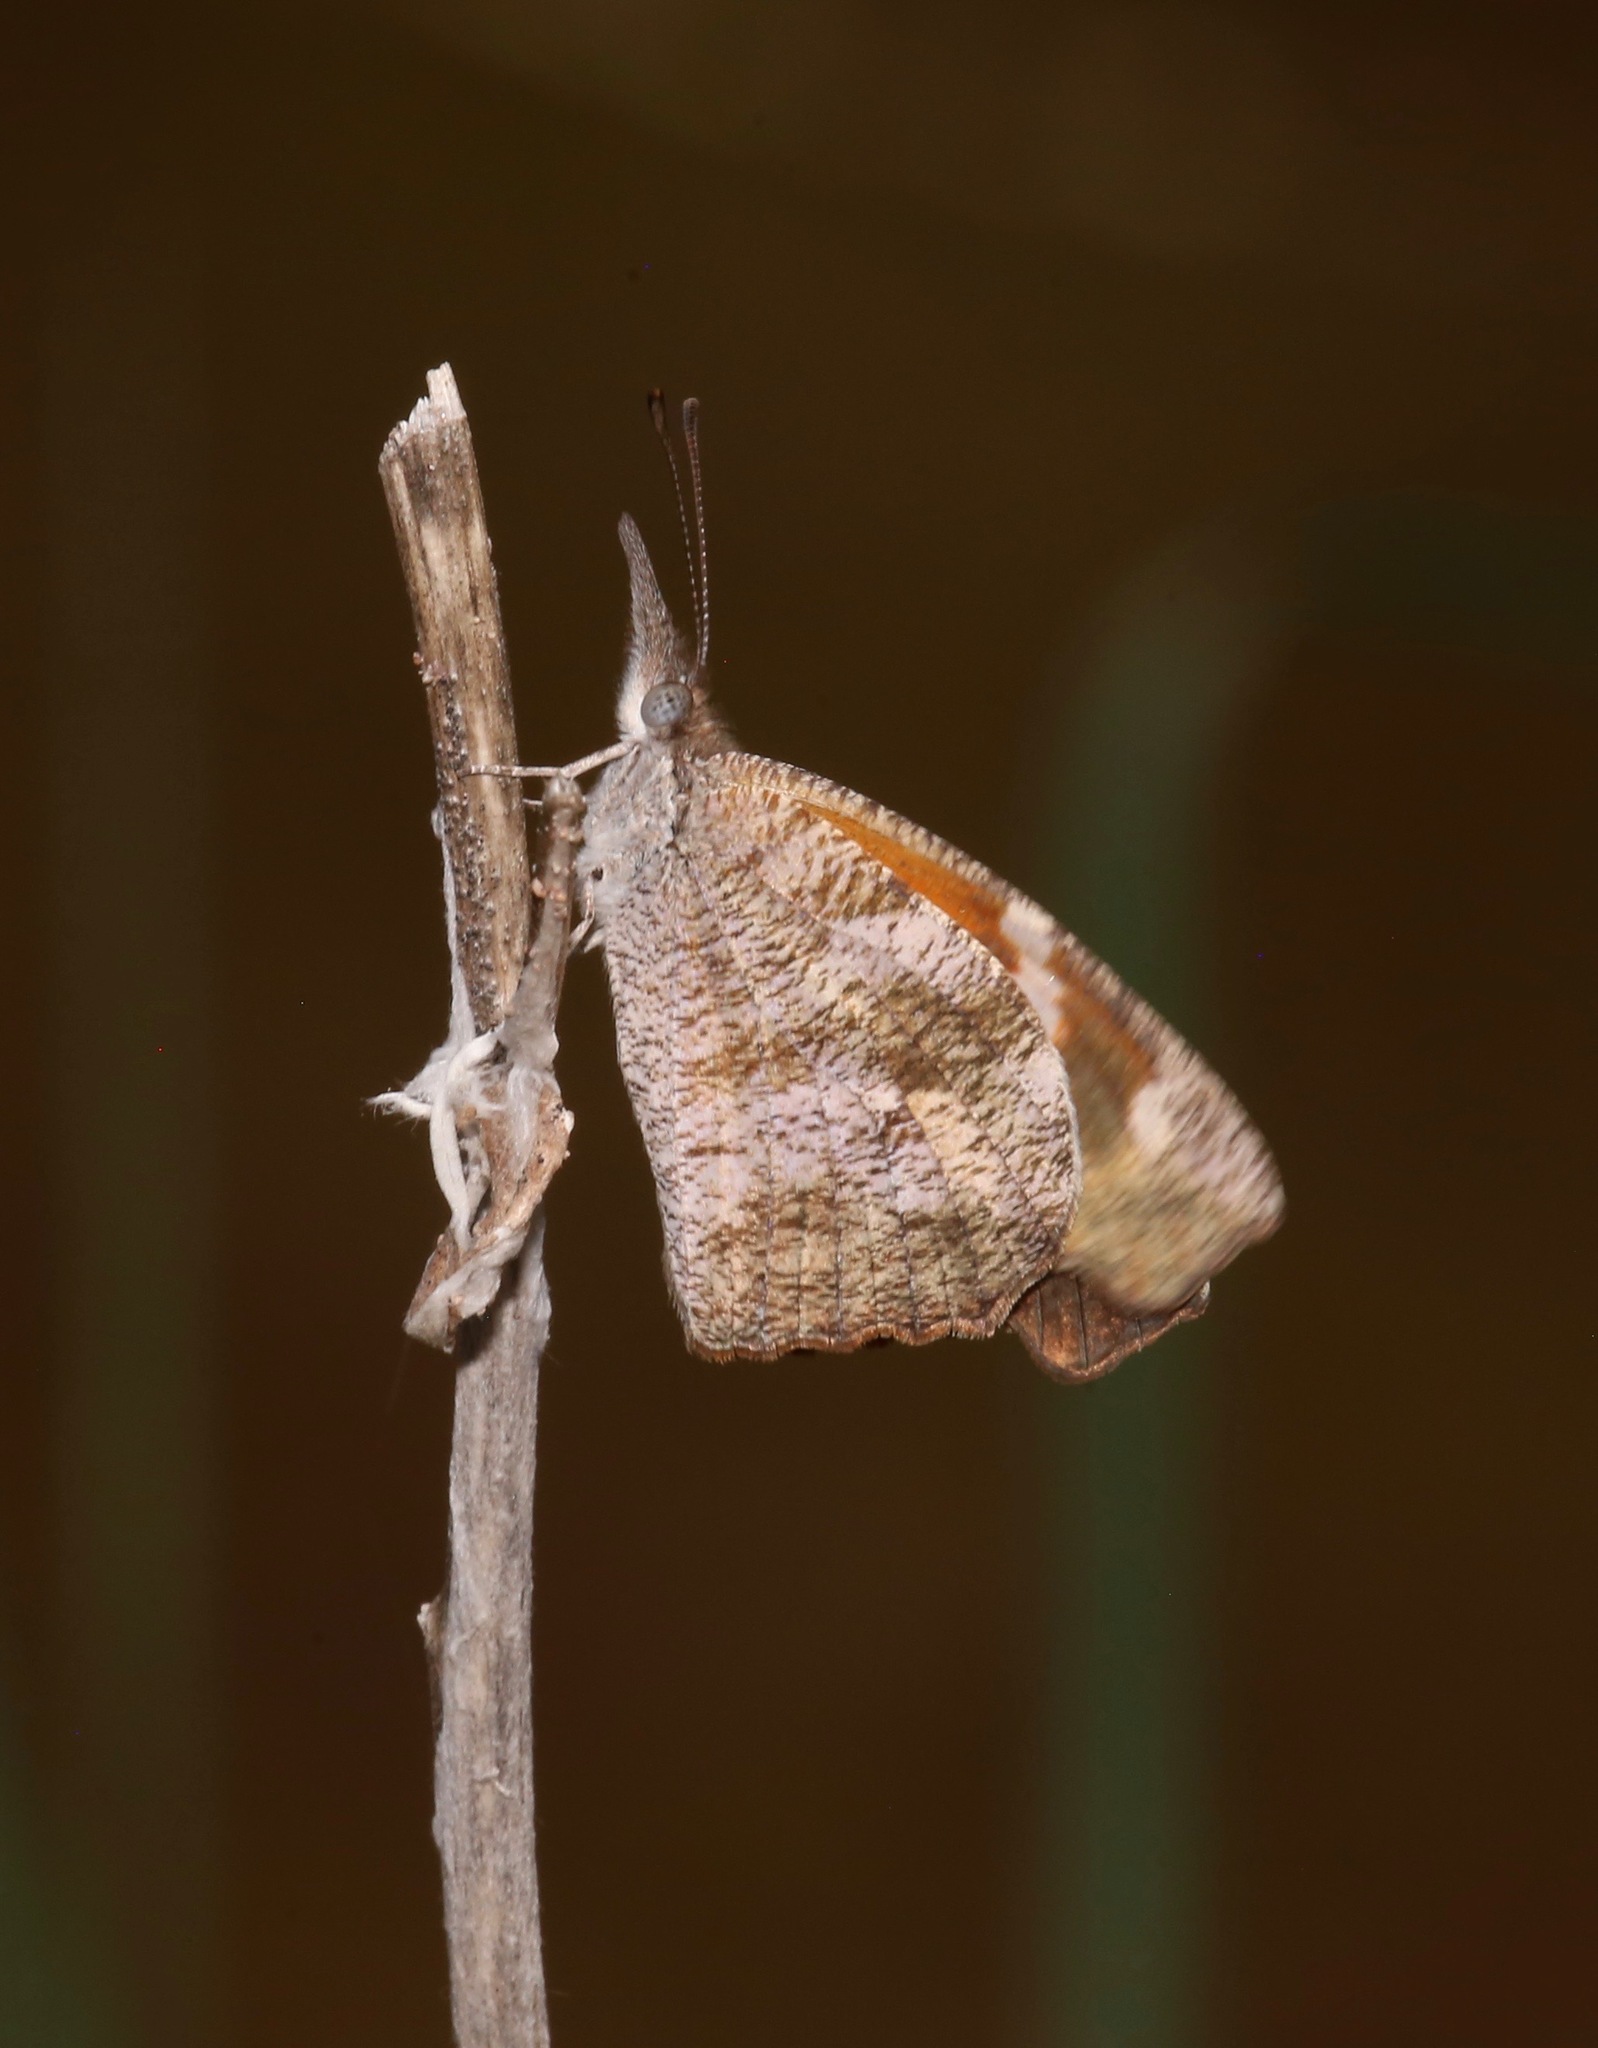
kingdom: Animalia
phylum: Arthropoda
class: Insecta
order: Lepidoptera
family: Nymphalidae
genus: Libytheana
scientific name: Libytheana carinenta
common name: American snout
